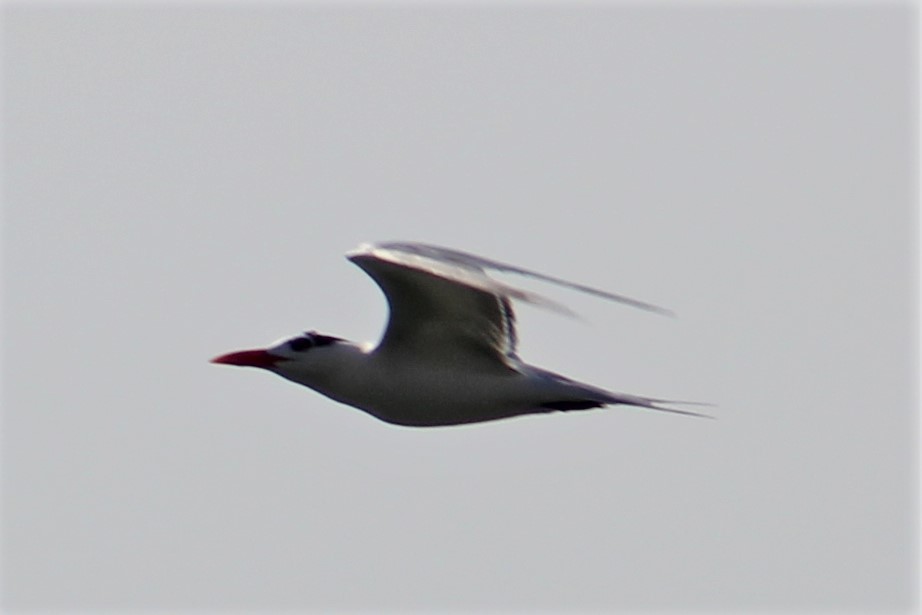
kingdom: Animalia
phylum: Chordata
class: Aves
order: Charadriiformes
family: Laridae
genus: Thalasseus
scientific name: Thalasseus maximus
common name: Royal tern
